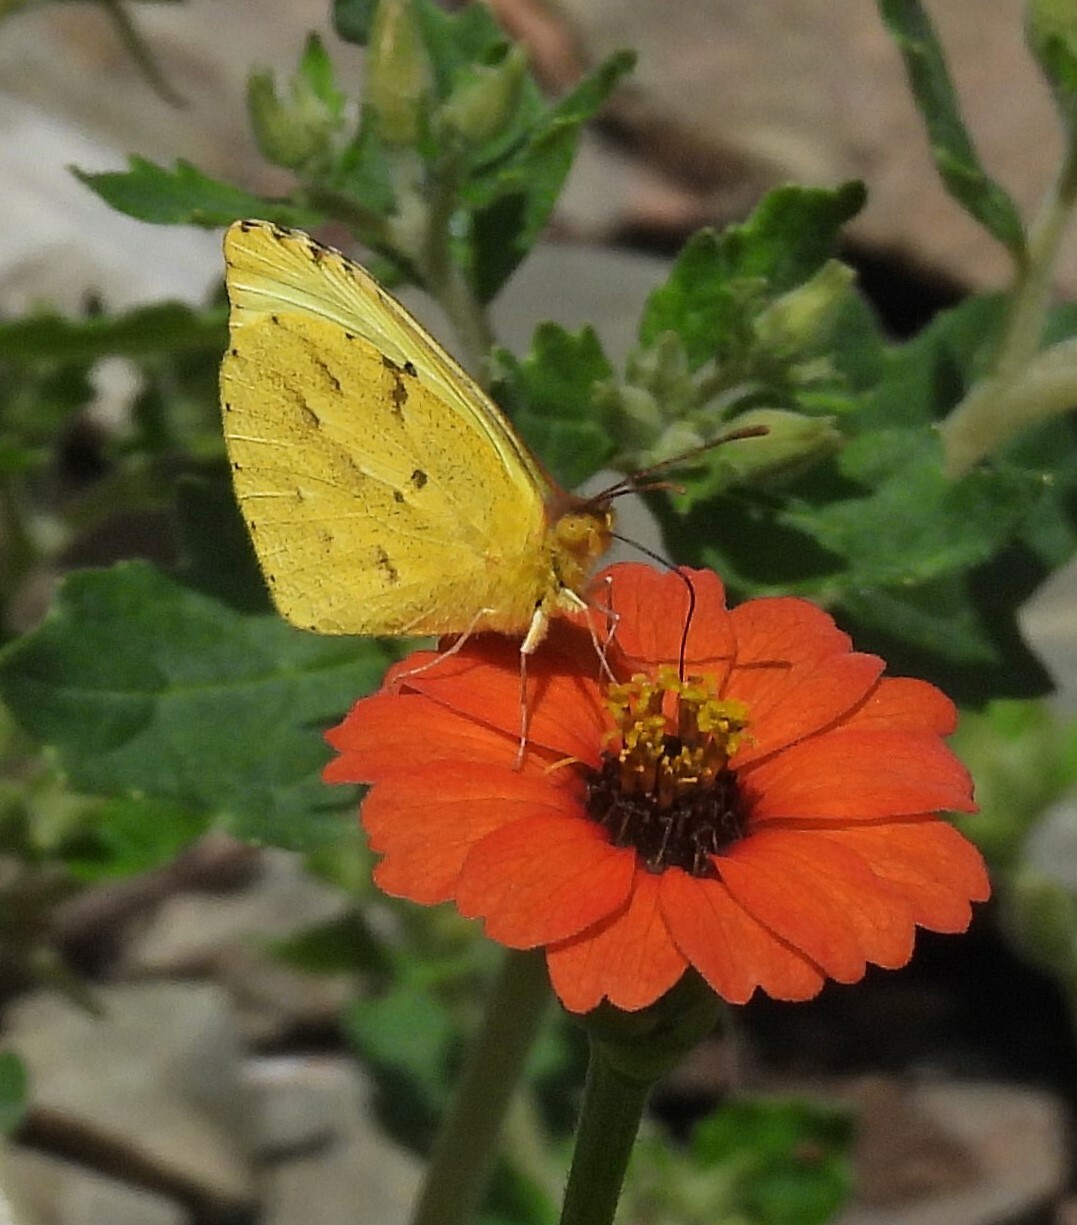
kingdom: Animalia
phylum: Arthropoda
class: Insecta
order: Lepidoptera
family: Pieridae
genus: Teriocolias
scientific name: Teriocolias zelia
